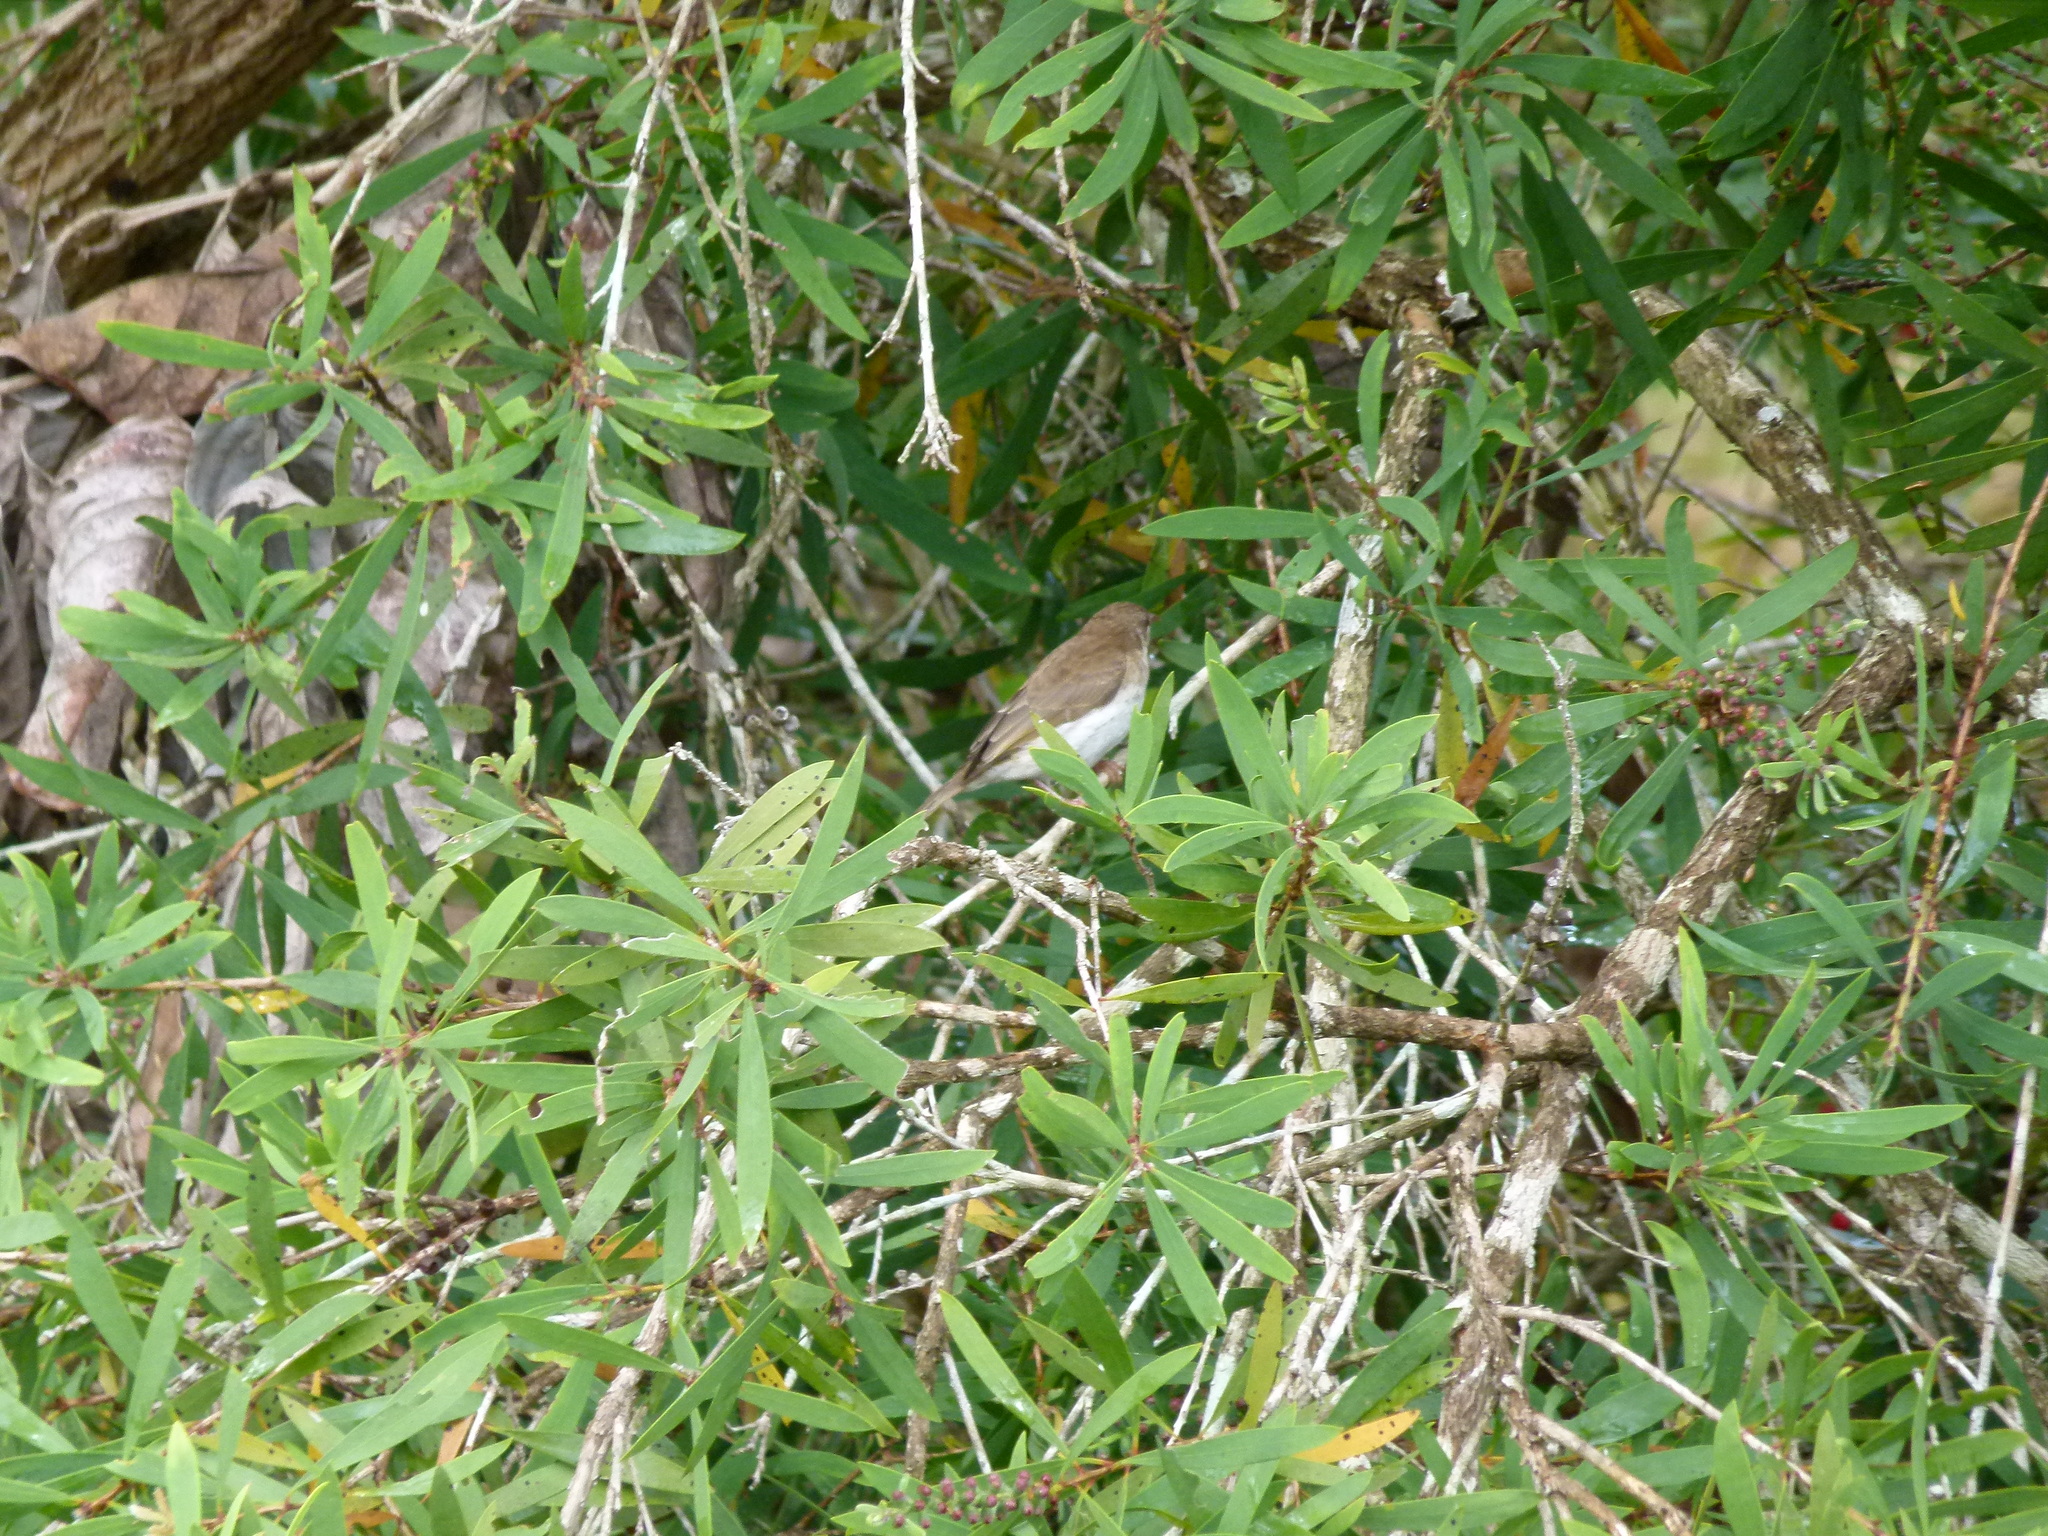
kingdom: Animalia
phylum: Chordata
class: Aves
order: Passeriformes
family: Meliphagidae
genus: Ramsayornis
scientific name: Ramsayornis modestus
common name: Brown-backed honeyeater
